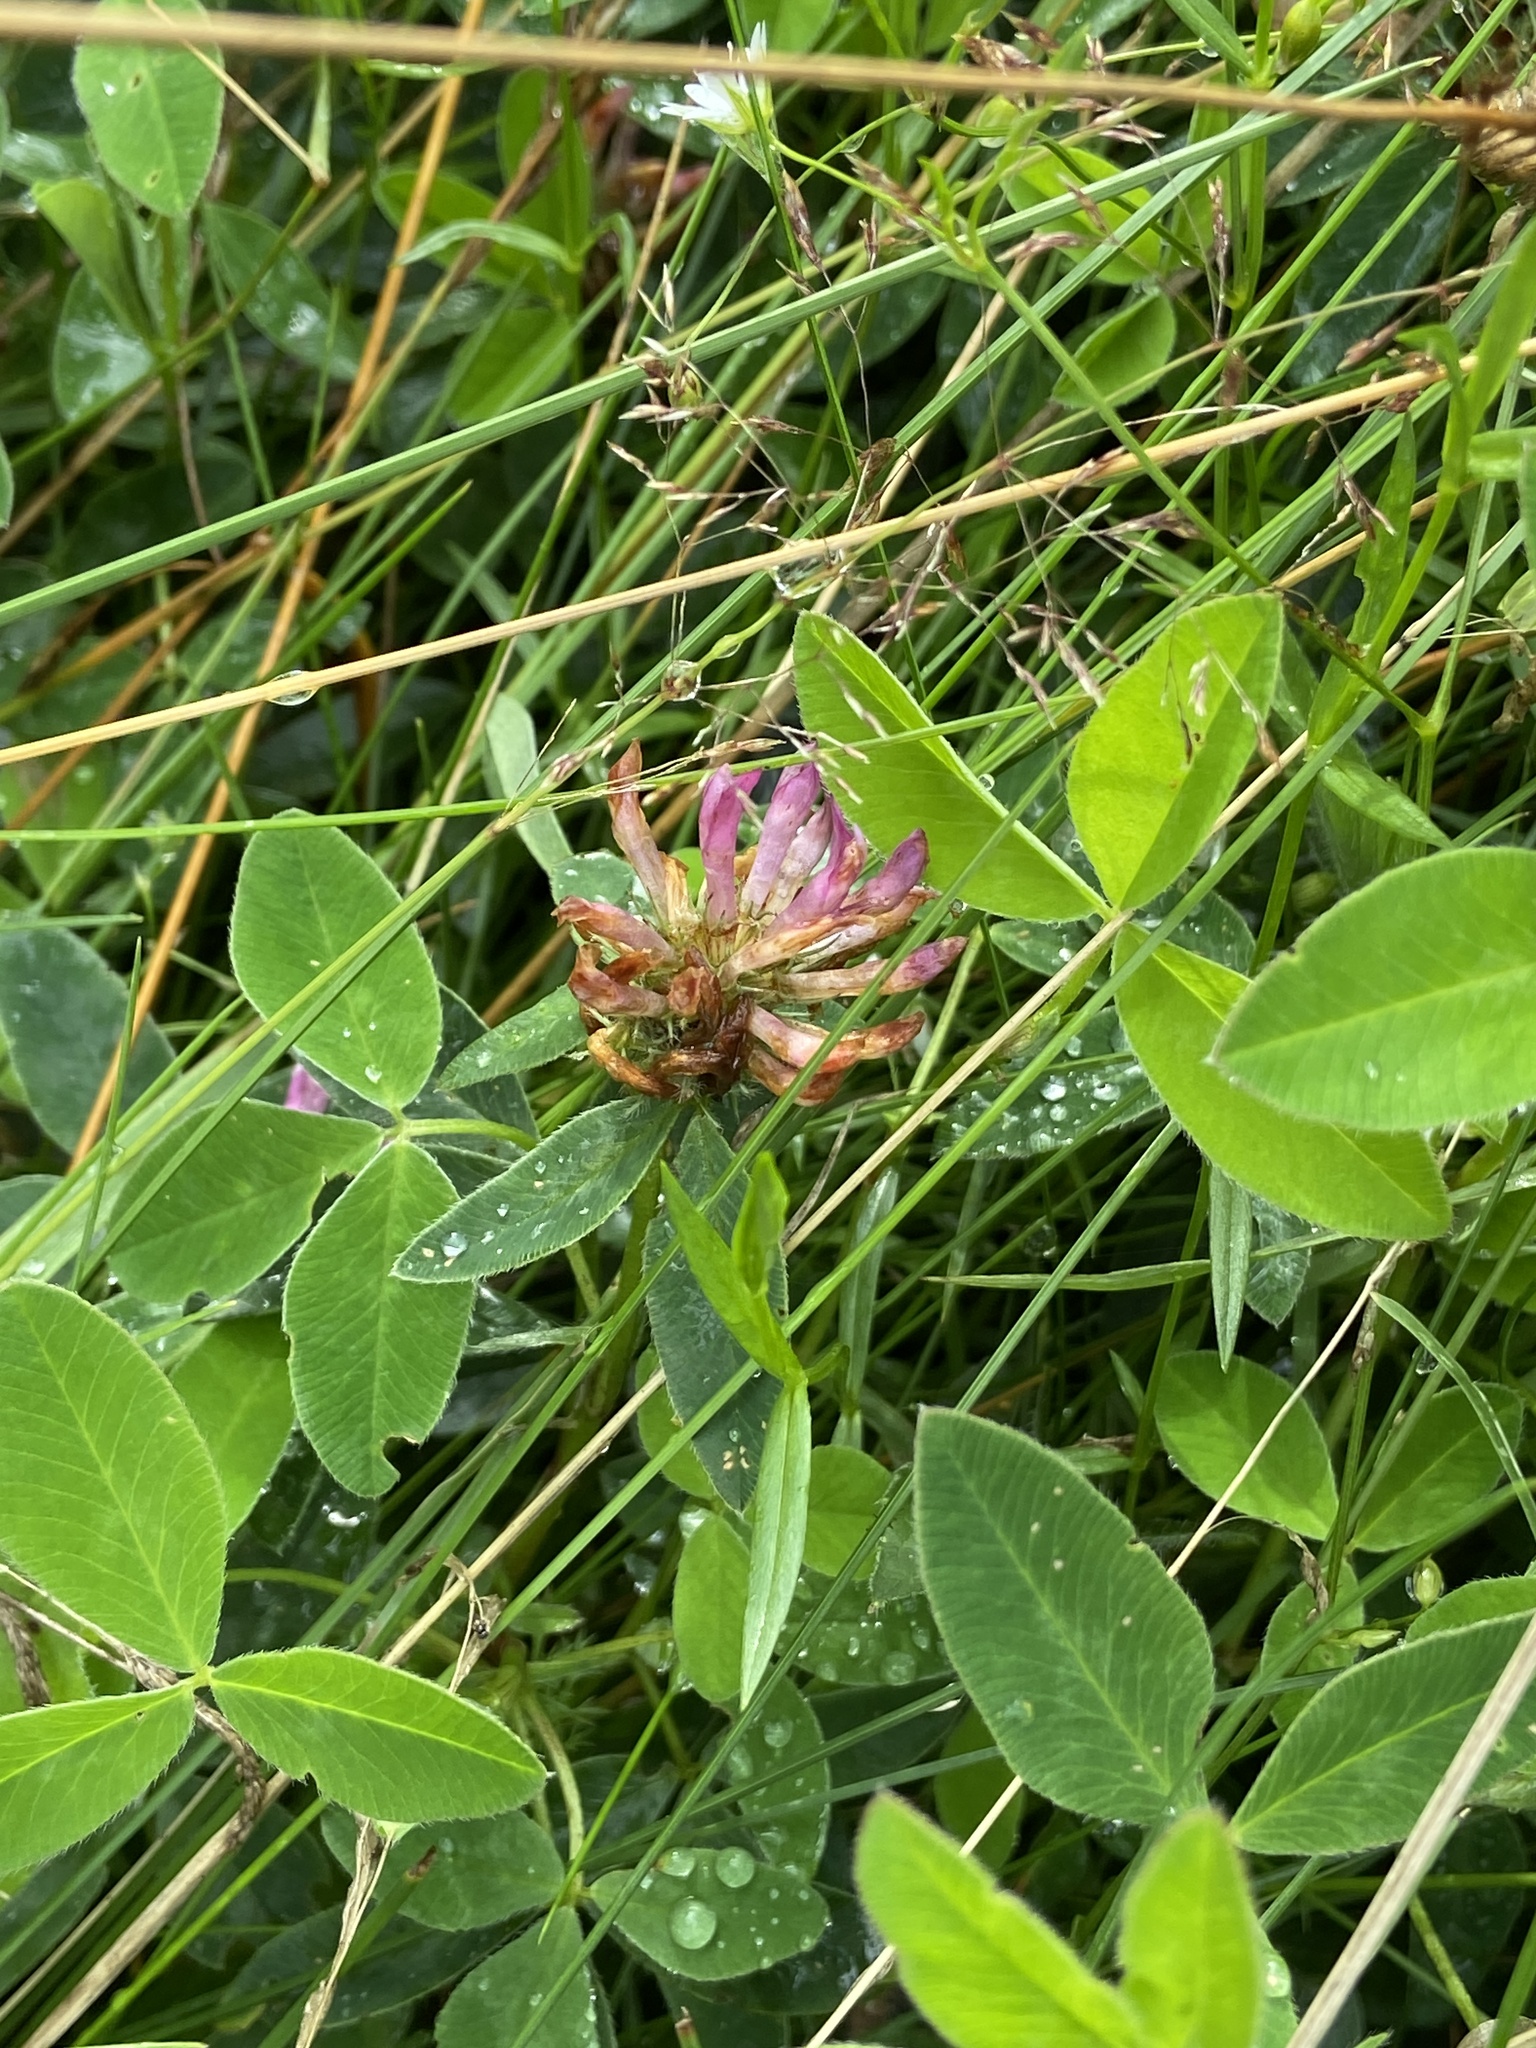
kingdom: Plantae
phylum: Tracheophyta
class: Magnoliopsida
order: Fabales
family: Fabaceae
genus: Trifolium
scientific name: Trifolium medium
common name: Zigzag clover
